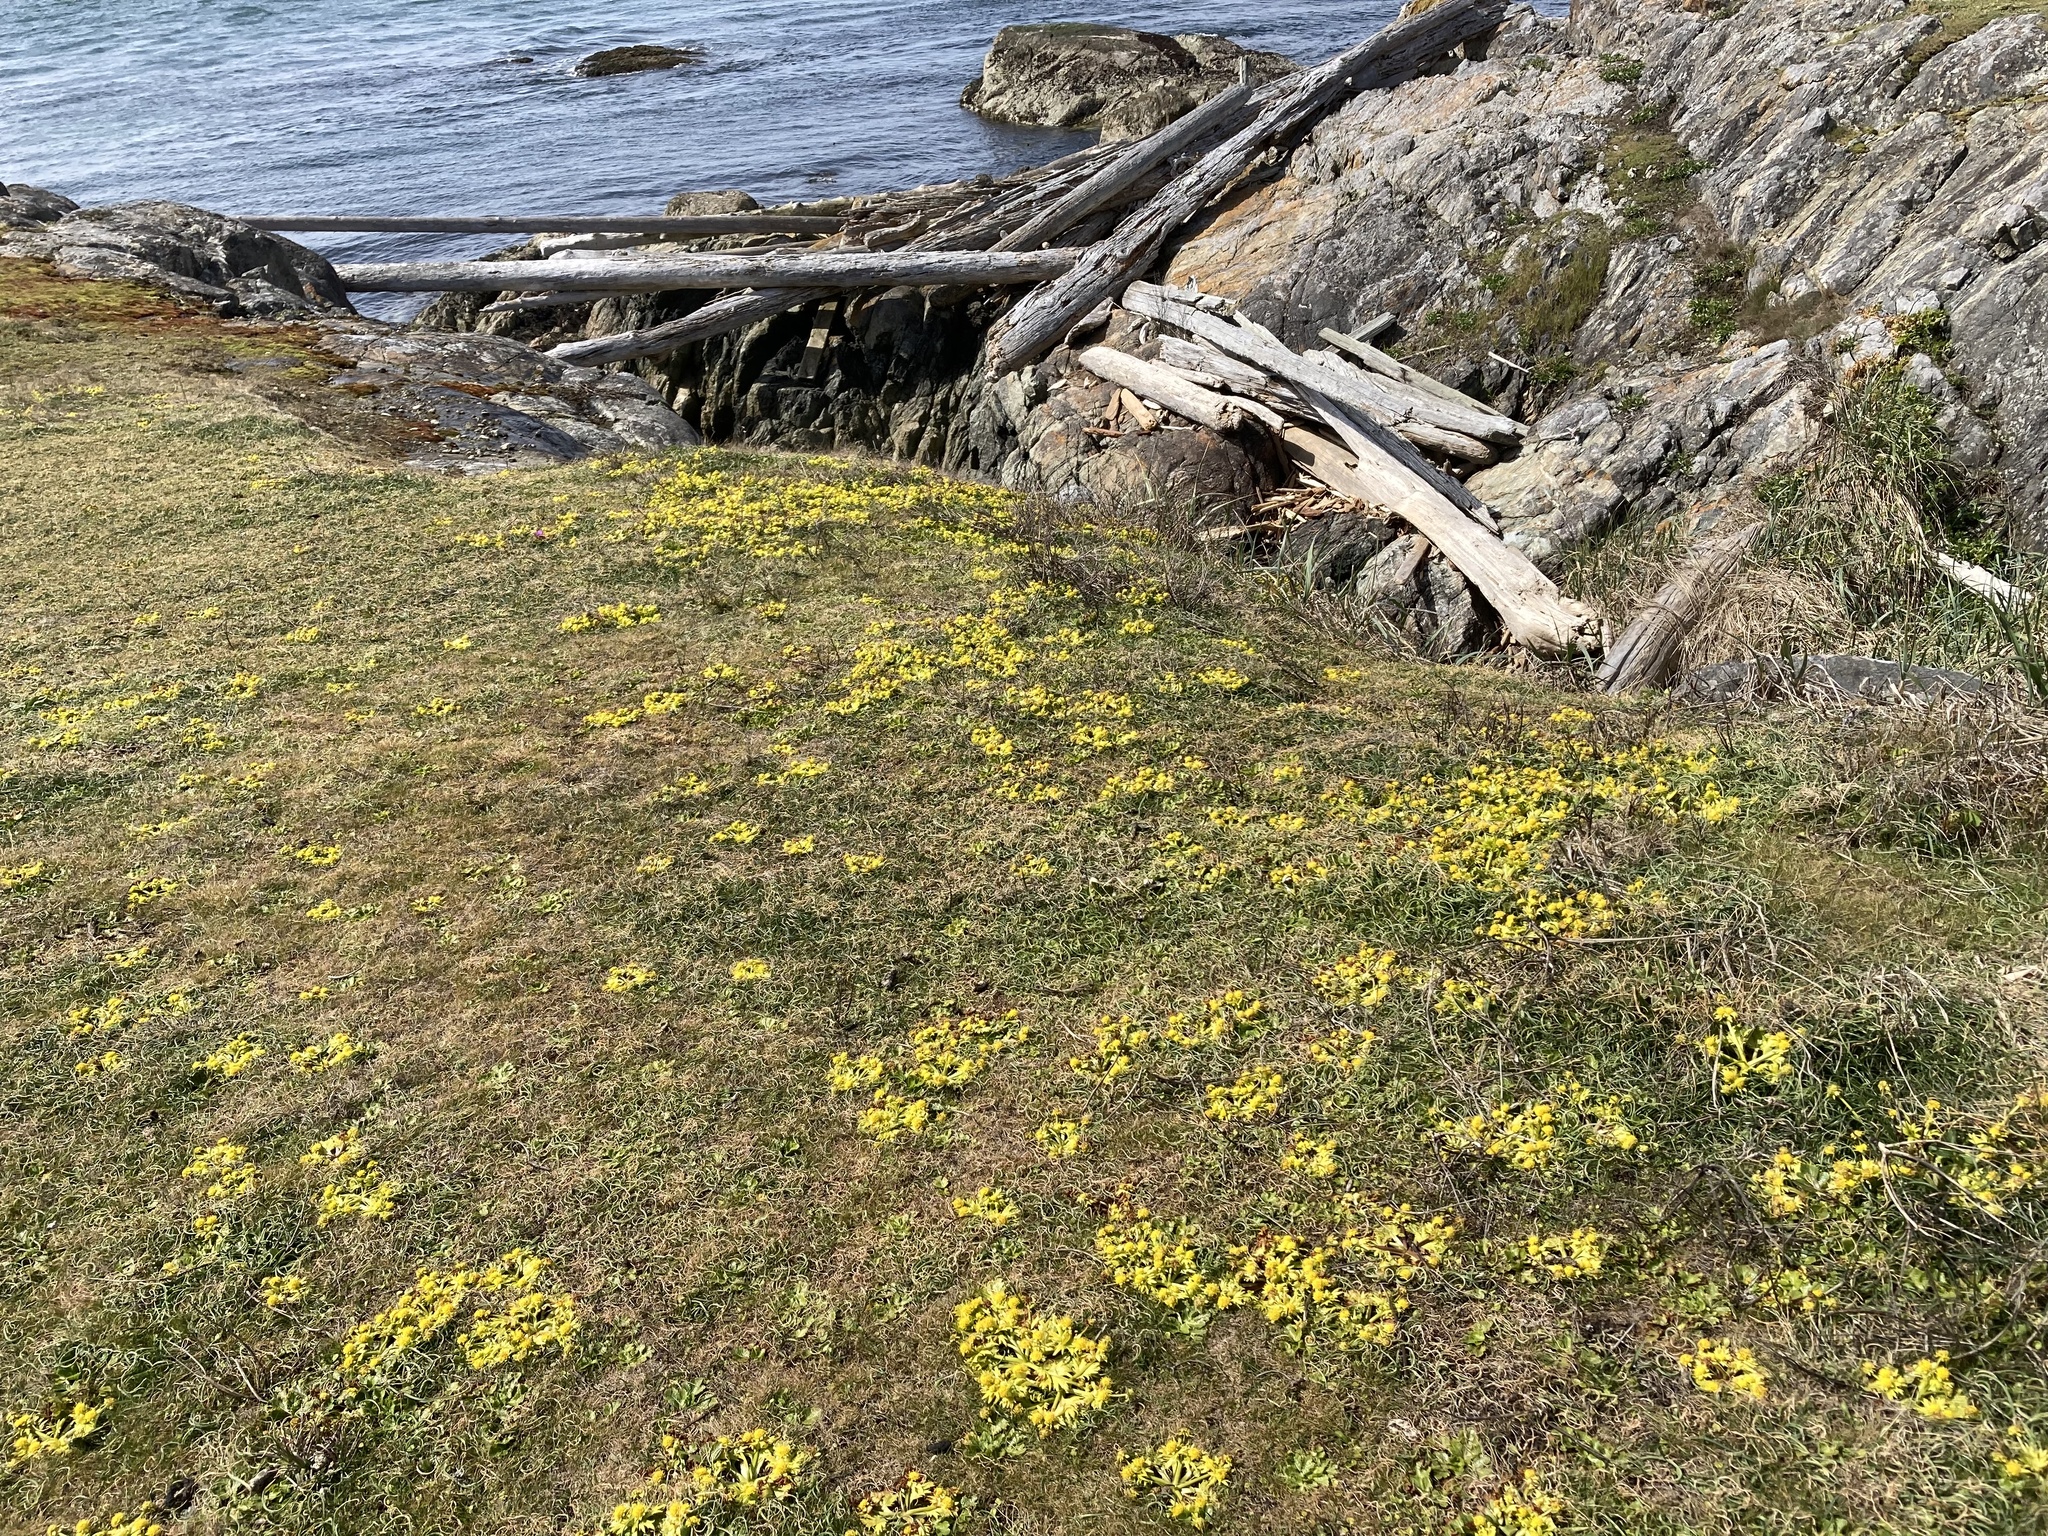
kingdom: Plantae
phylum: Tracheophyta
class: Magnoliopsida
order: Apiales
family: Apiaceae
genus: Sanicula
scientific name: Sanicula arctopoides
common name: Footsteps-of-spring
